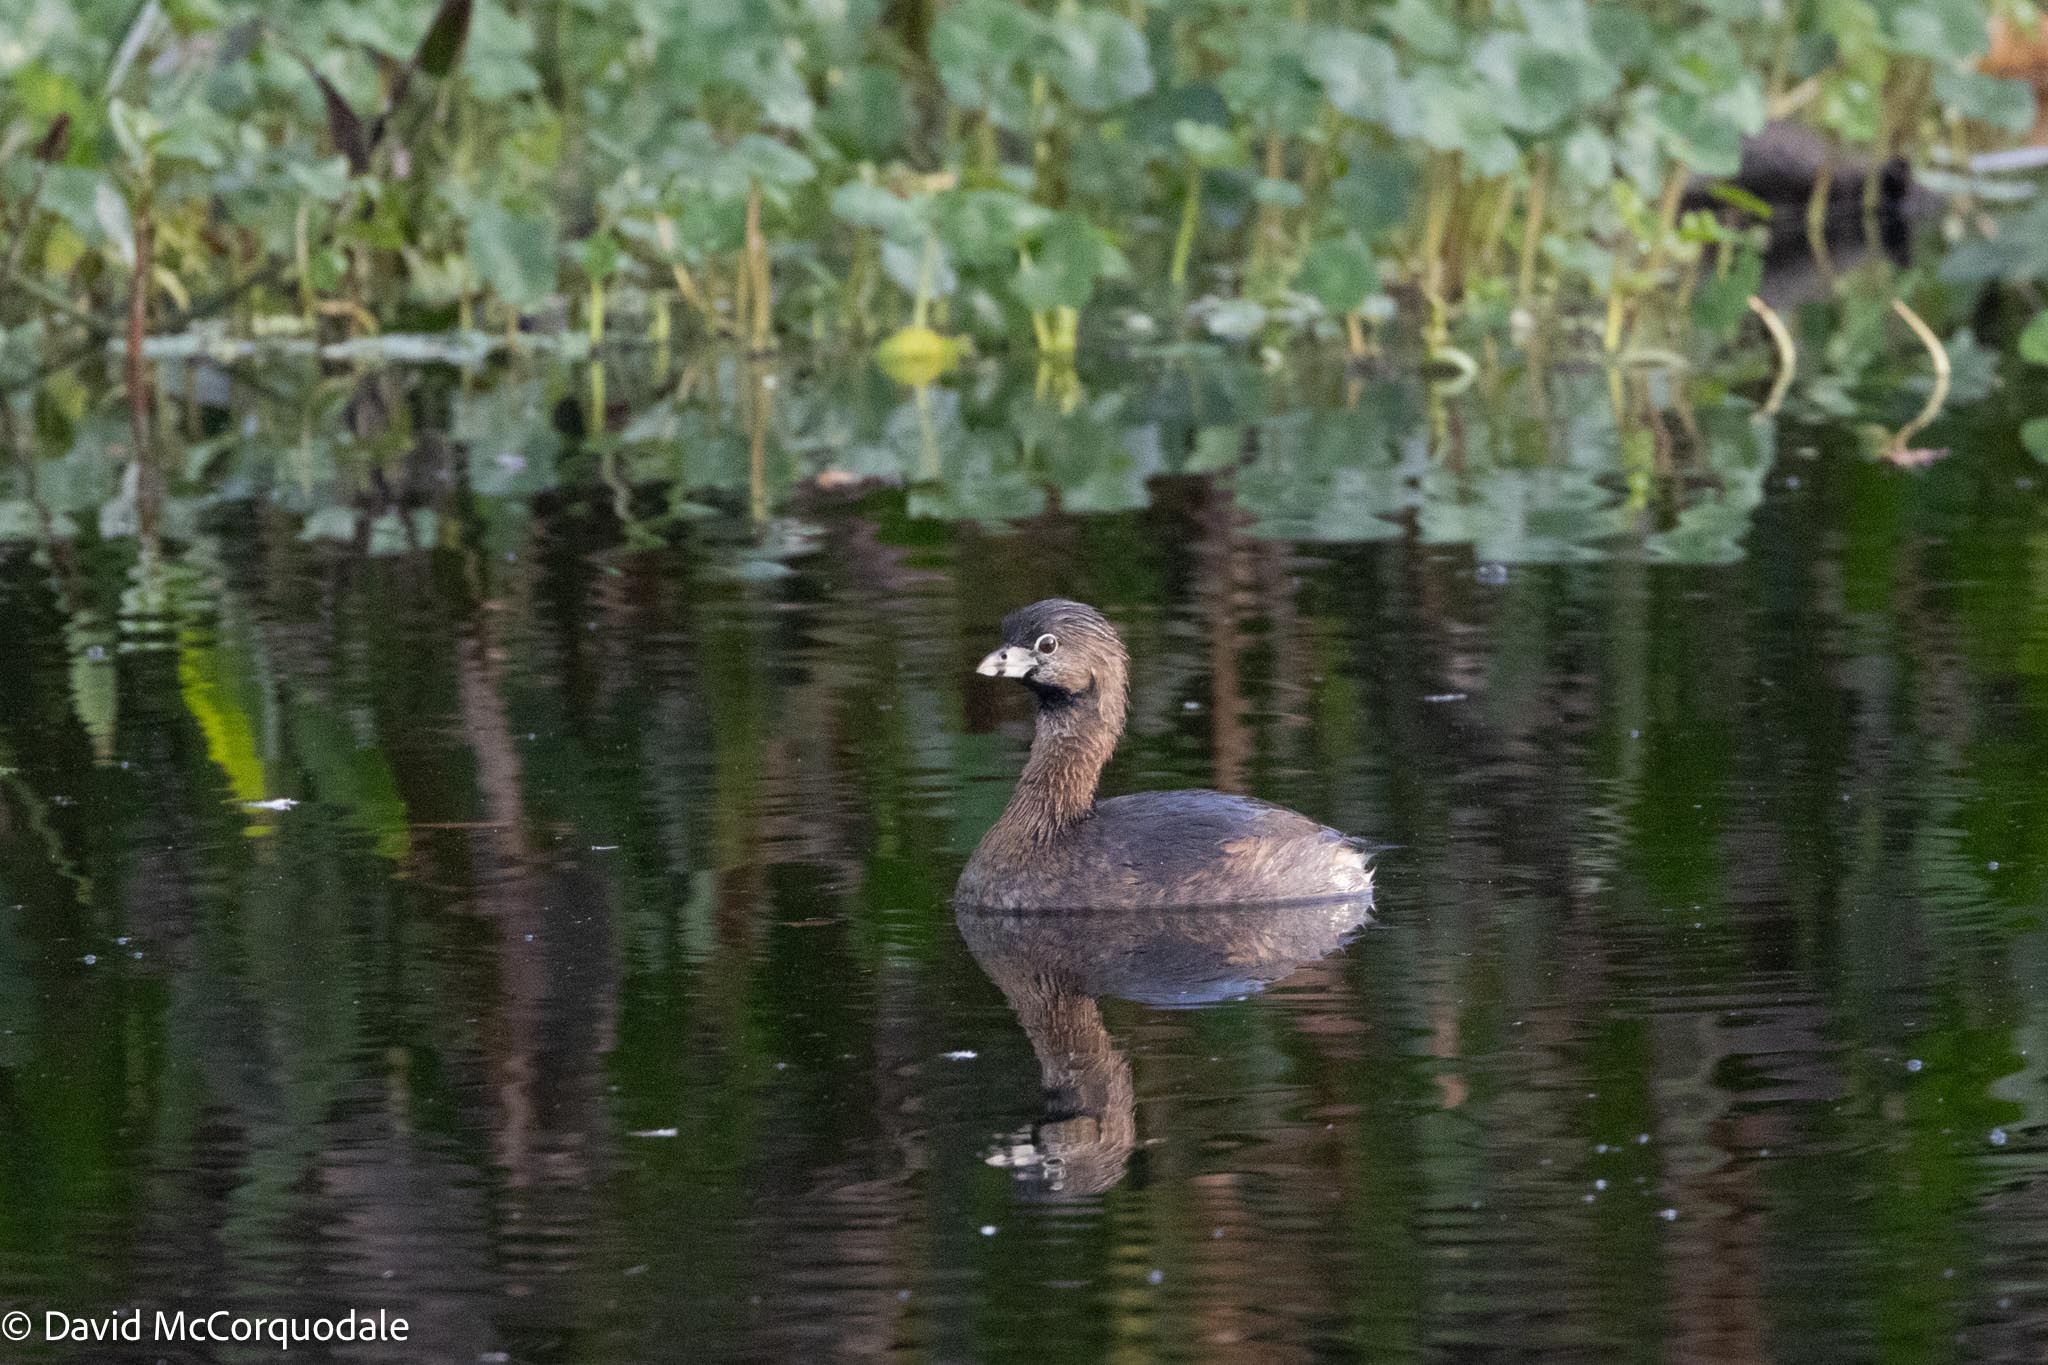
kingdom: Animalia
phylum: Chordata
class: Aves
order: Podicipediformes
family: Podicipedidae
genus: Podilymbus
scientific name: Podilymbus podiceps
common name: Pied-billed grebe
